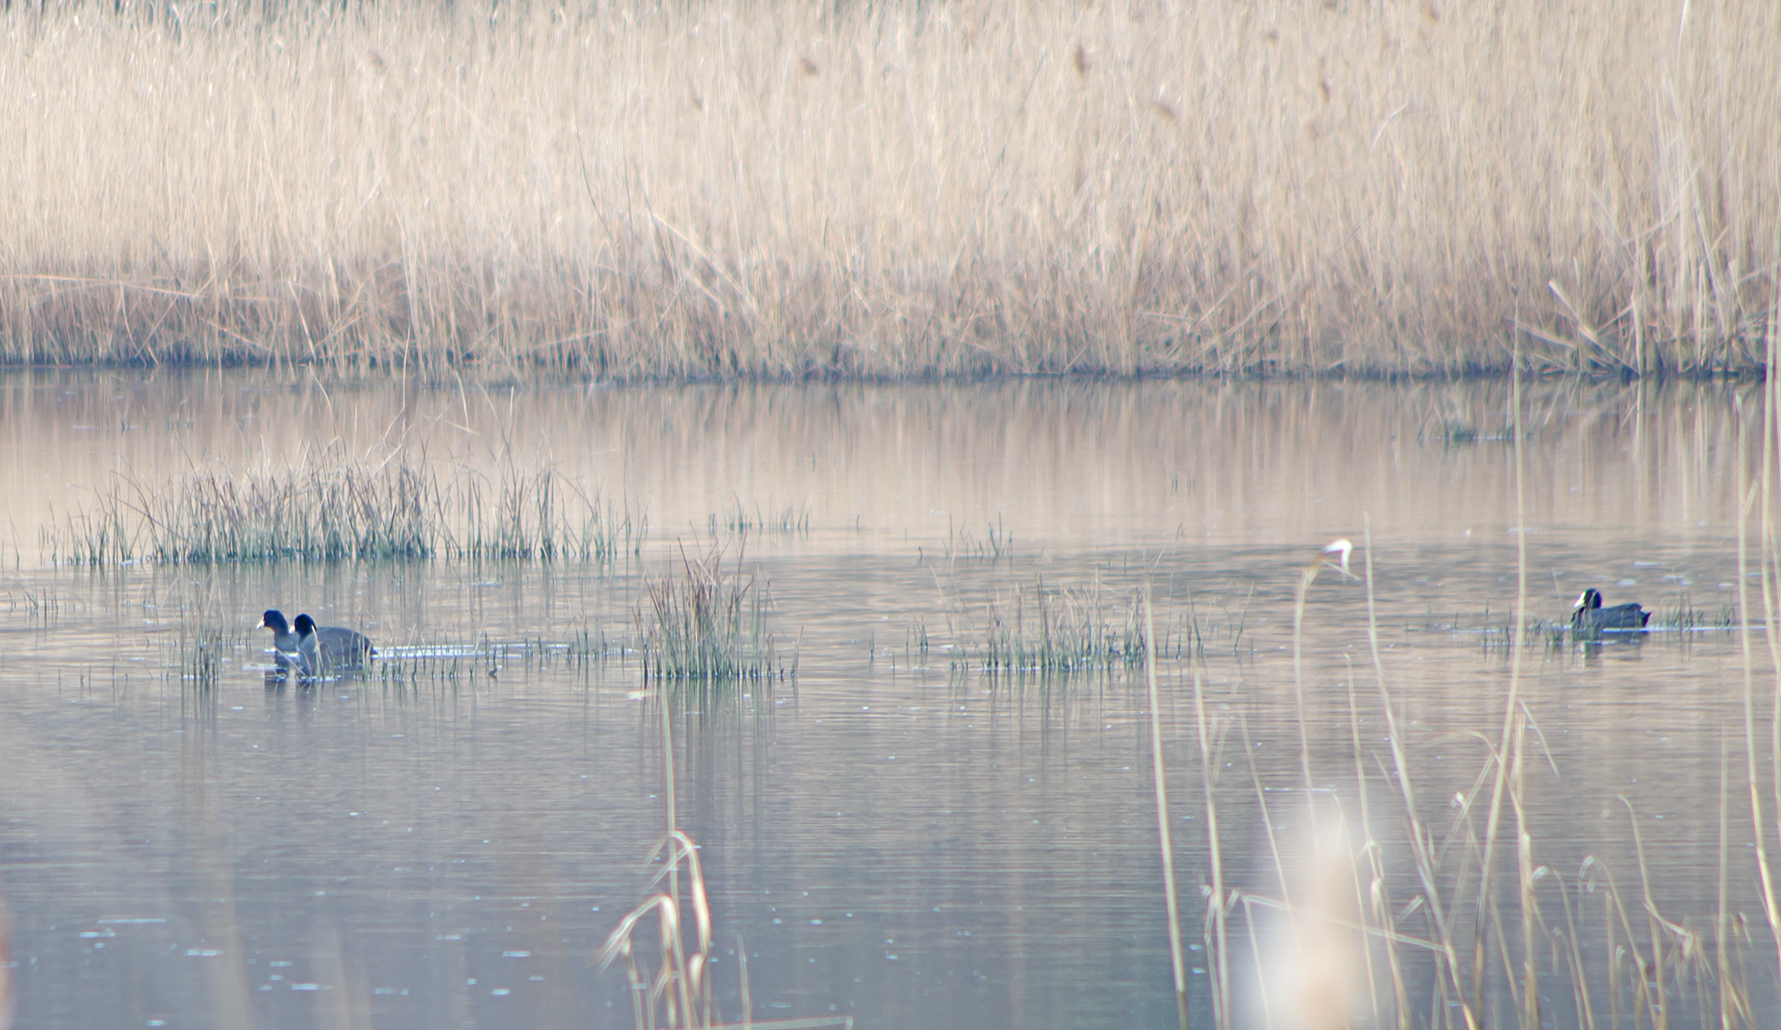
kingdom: Animalia
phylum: Chordata
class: Aves
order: Gruiformes
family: Rallidae
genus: Fulica
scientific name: Fulica atra
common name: Eurasian coot
